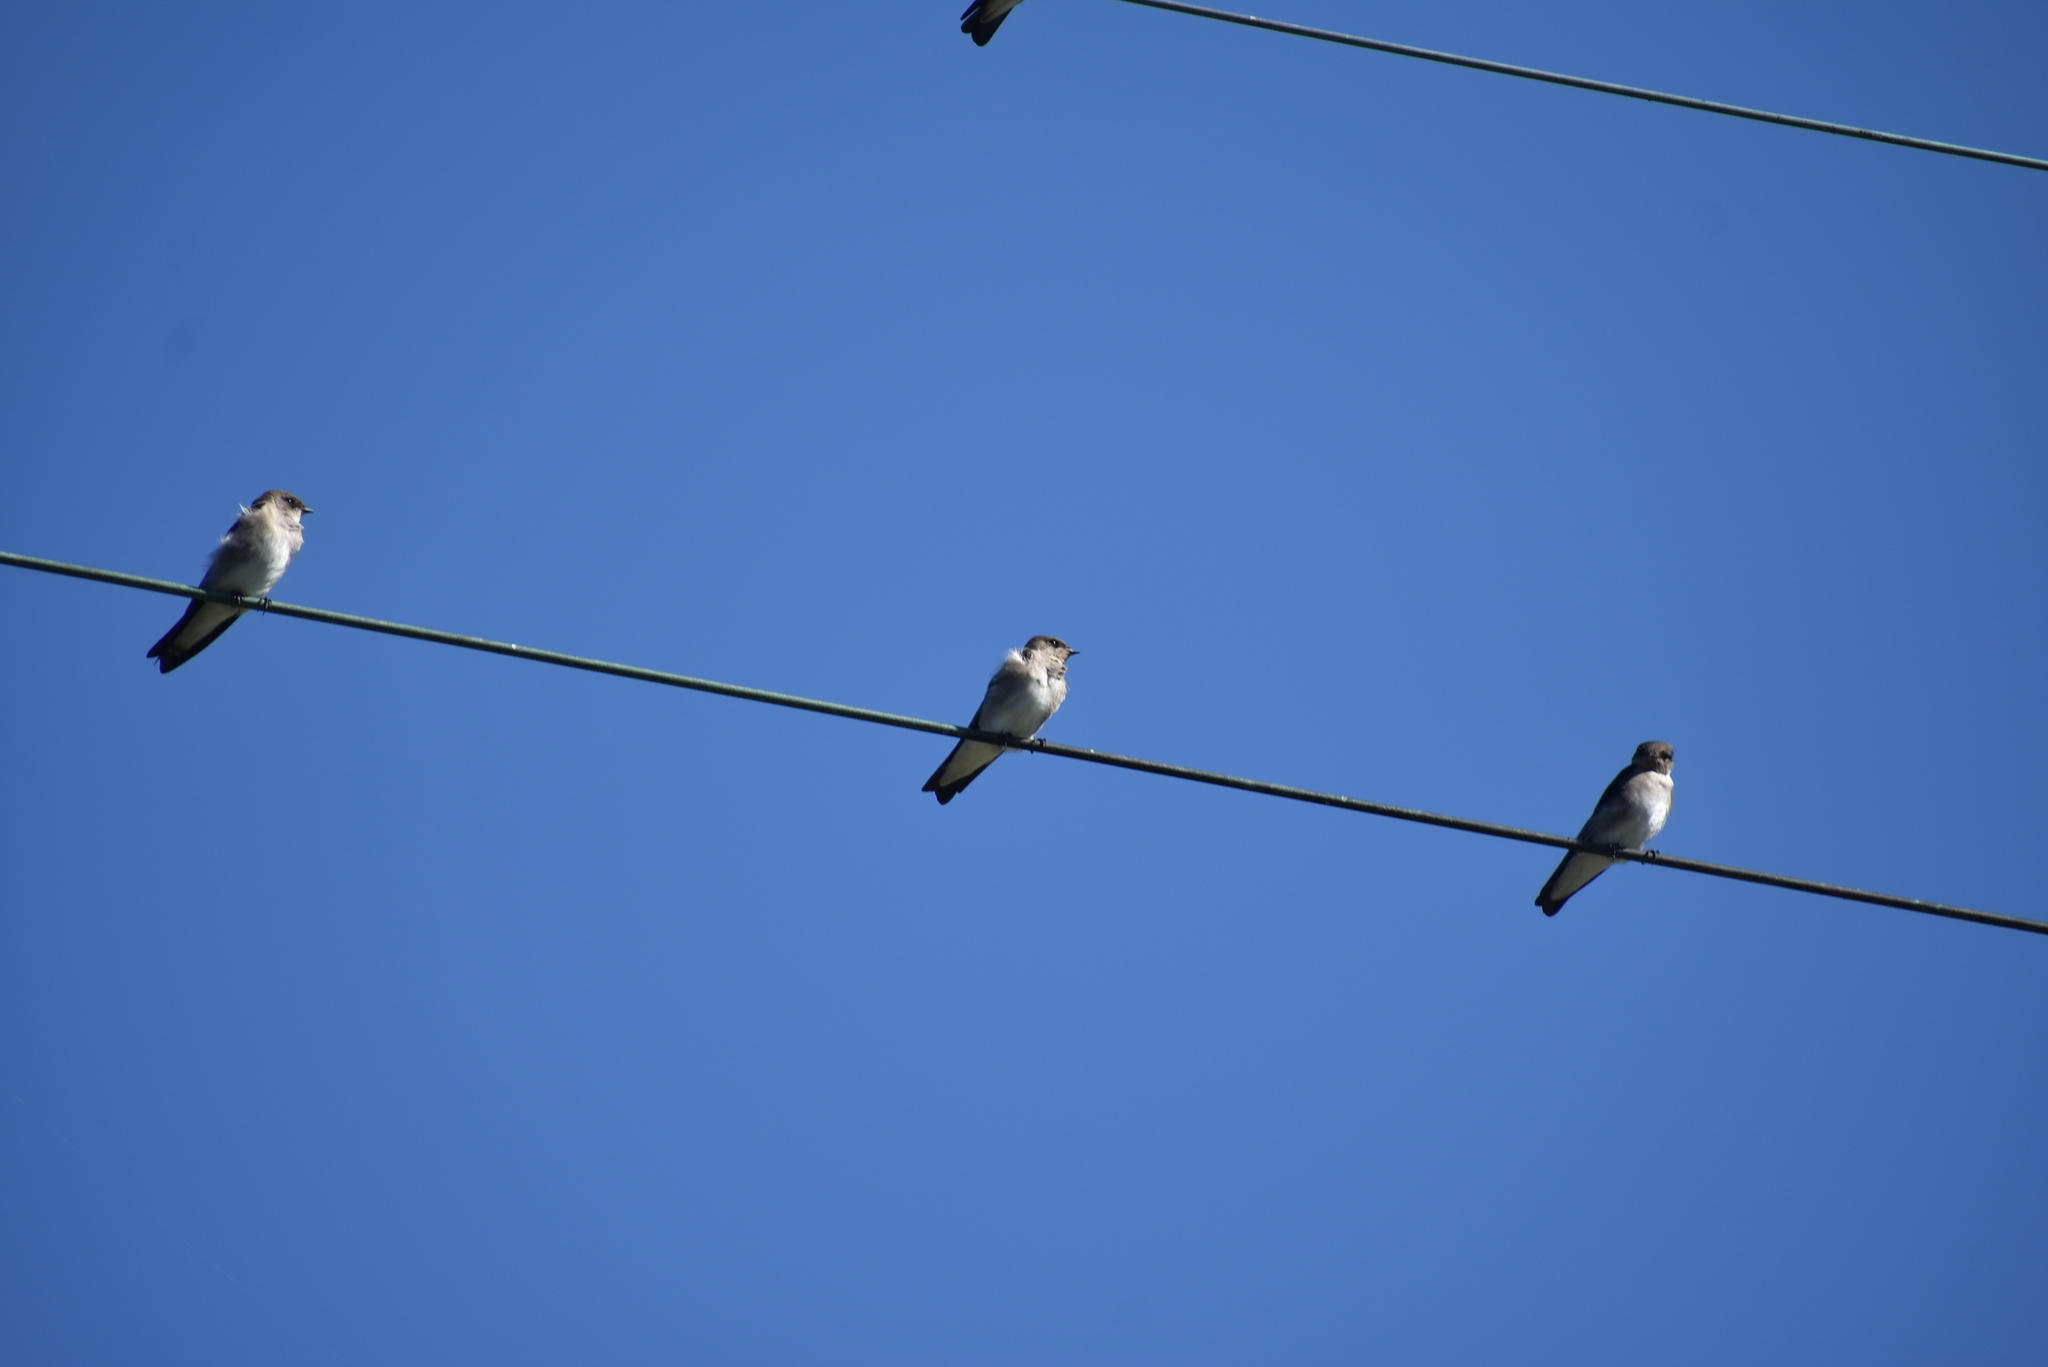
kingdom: Animalia
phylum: Chordata
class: Aves
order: Passeriformes
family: Hirundinidae
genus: Stelgidopteryx
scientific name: Stelgidopteryx serripennis
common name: Northern rough-winged swallow
